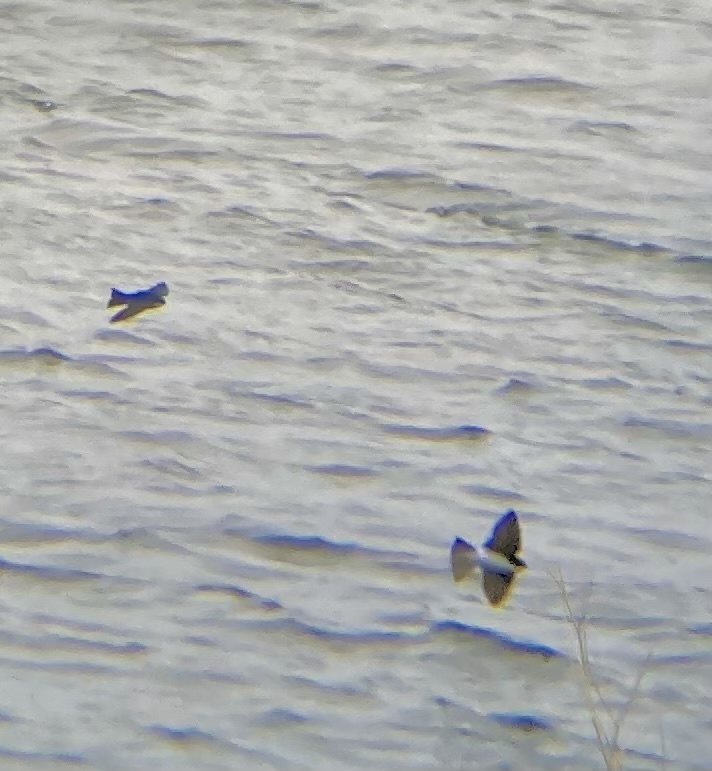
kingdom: Animalia
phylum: Chordata
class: Aves
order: Passeriformes
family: Hirundinidae
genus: Tachycineta
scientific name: Tachycineta bicolor
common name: Tree swallow
